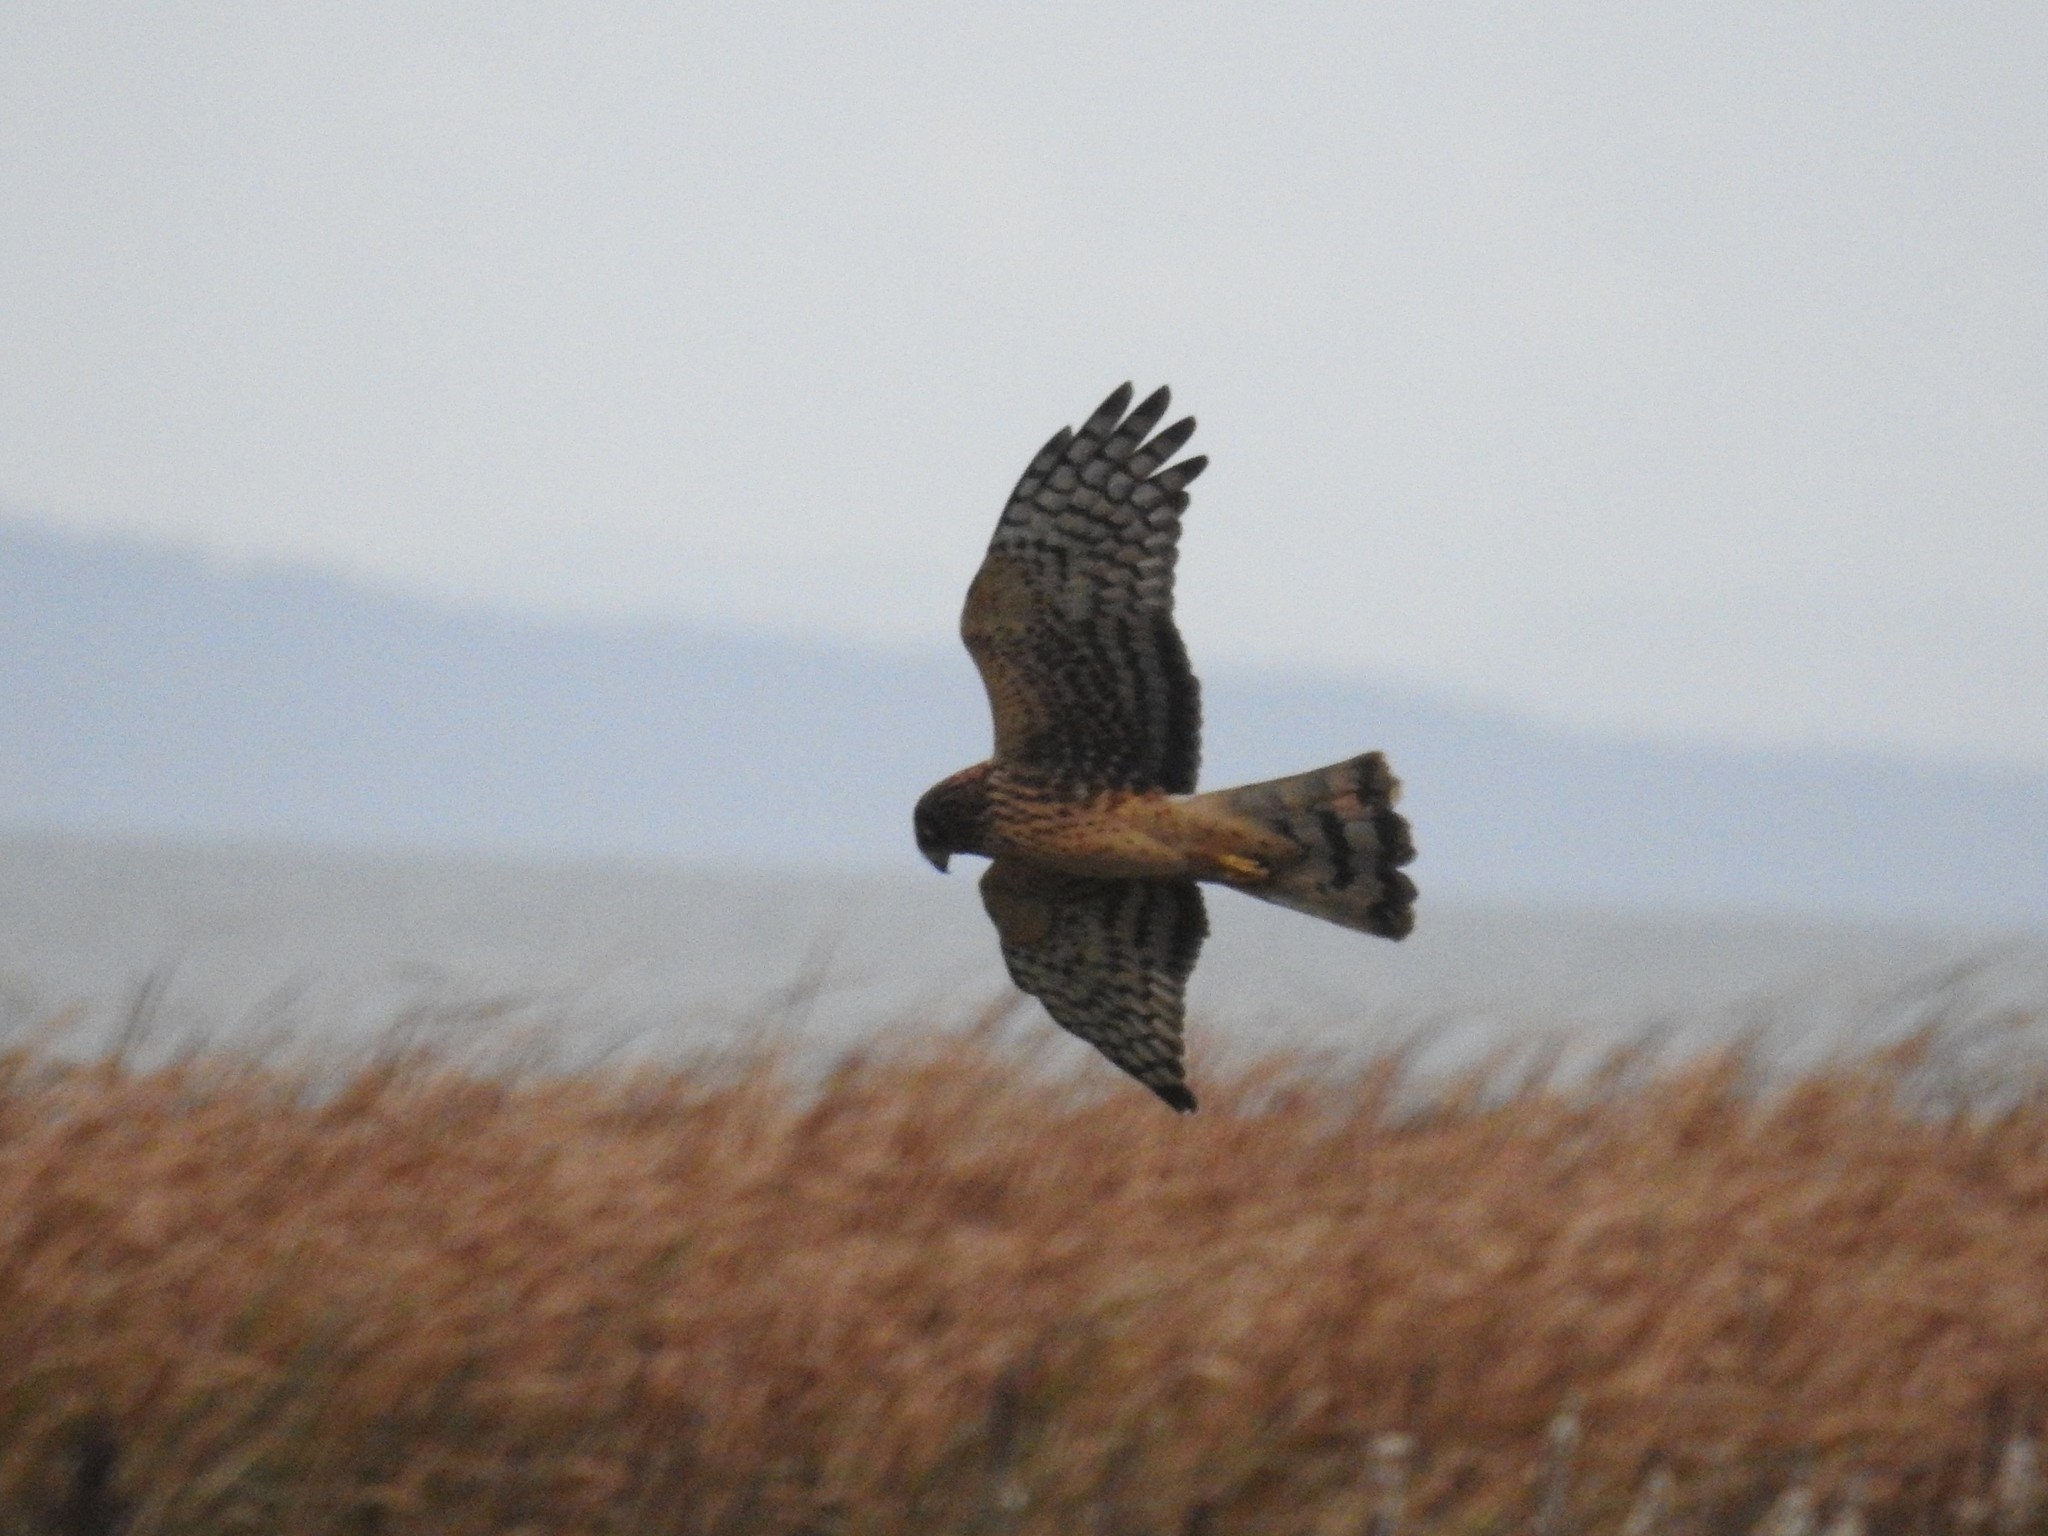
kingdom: Animalia
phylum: Chordata
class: Aves
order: Accipitriformes
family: Accipitridae
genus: Circus
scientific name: Circus cyaneus
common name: Hen harrier
